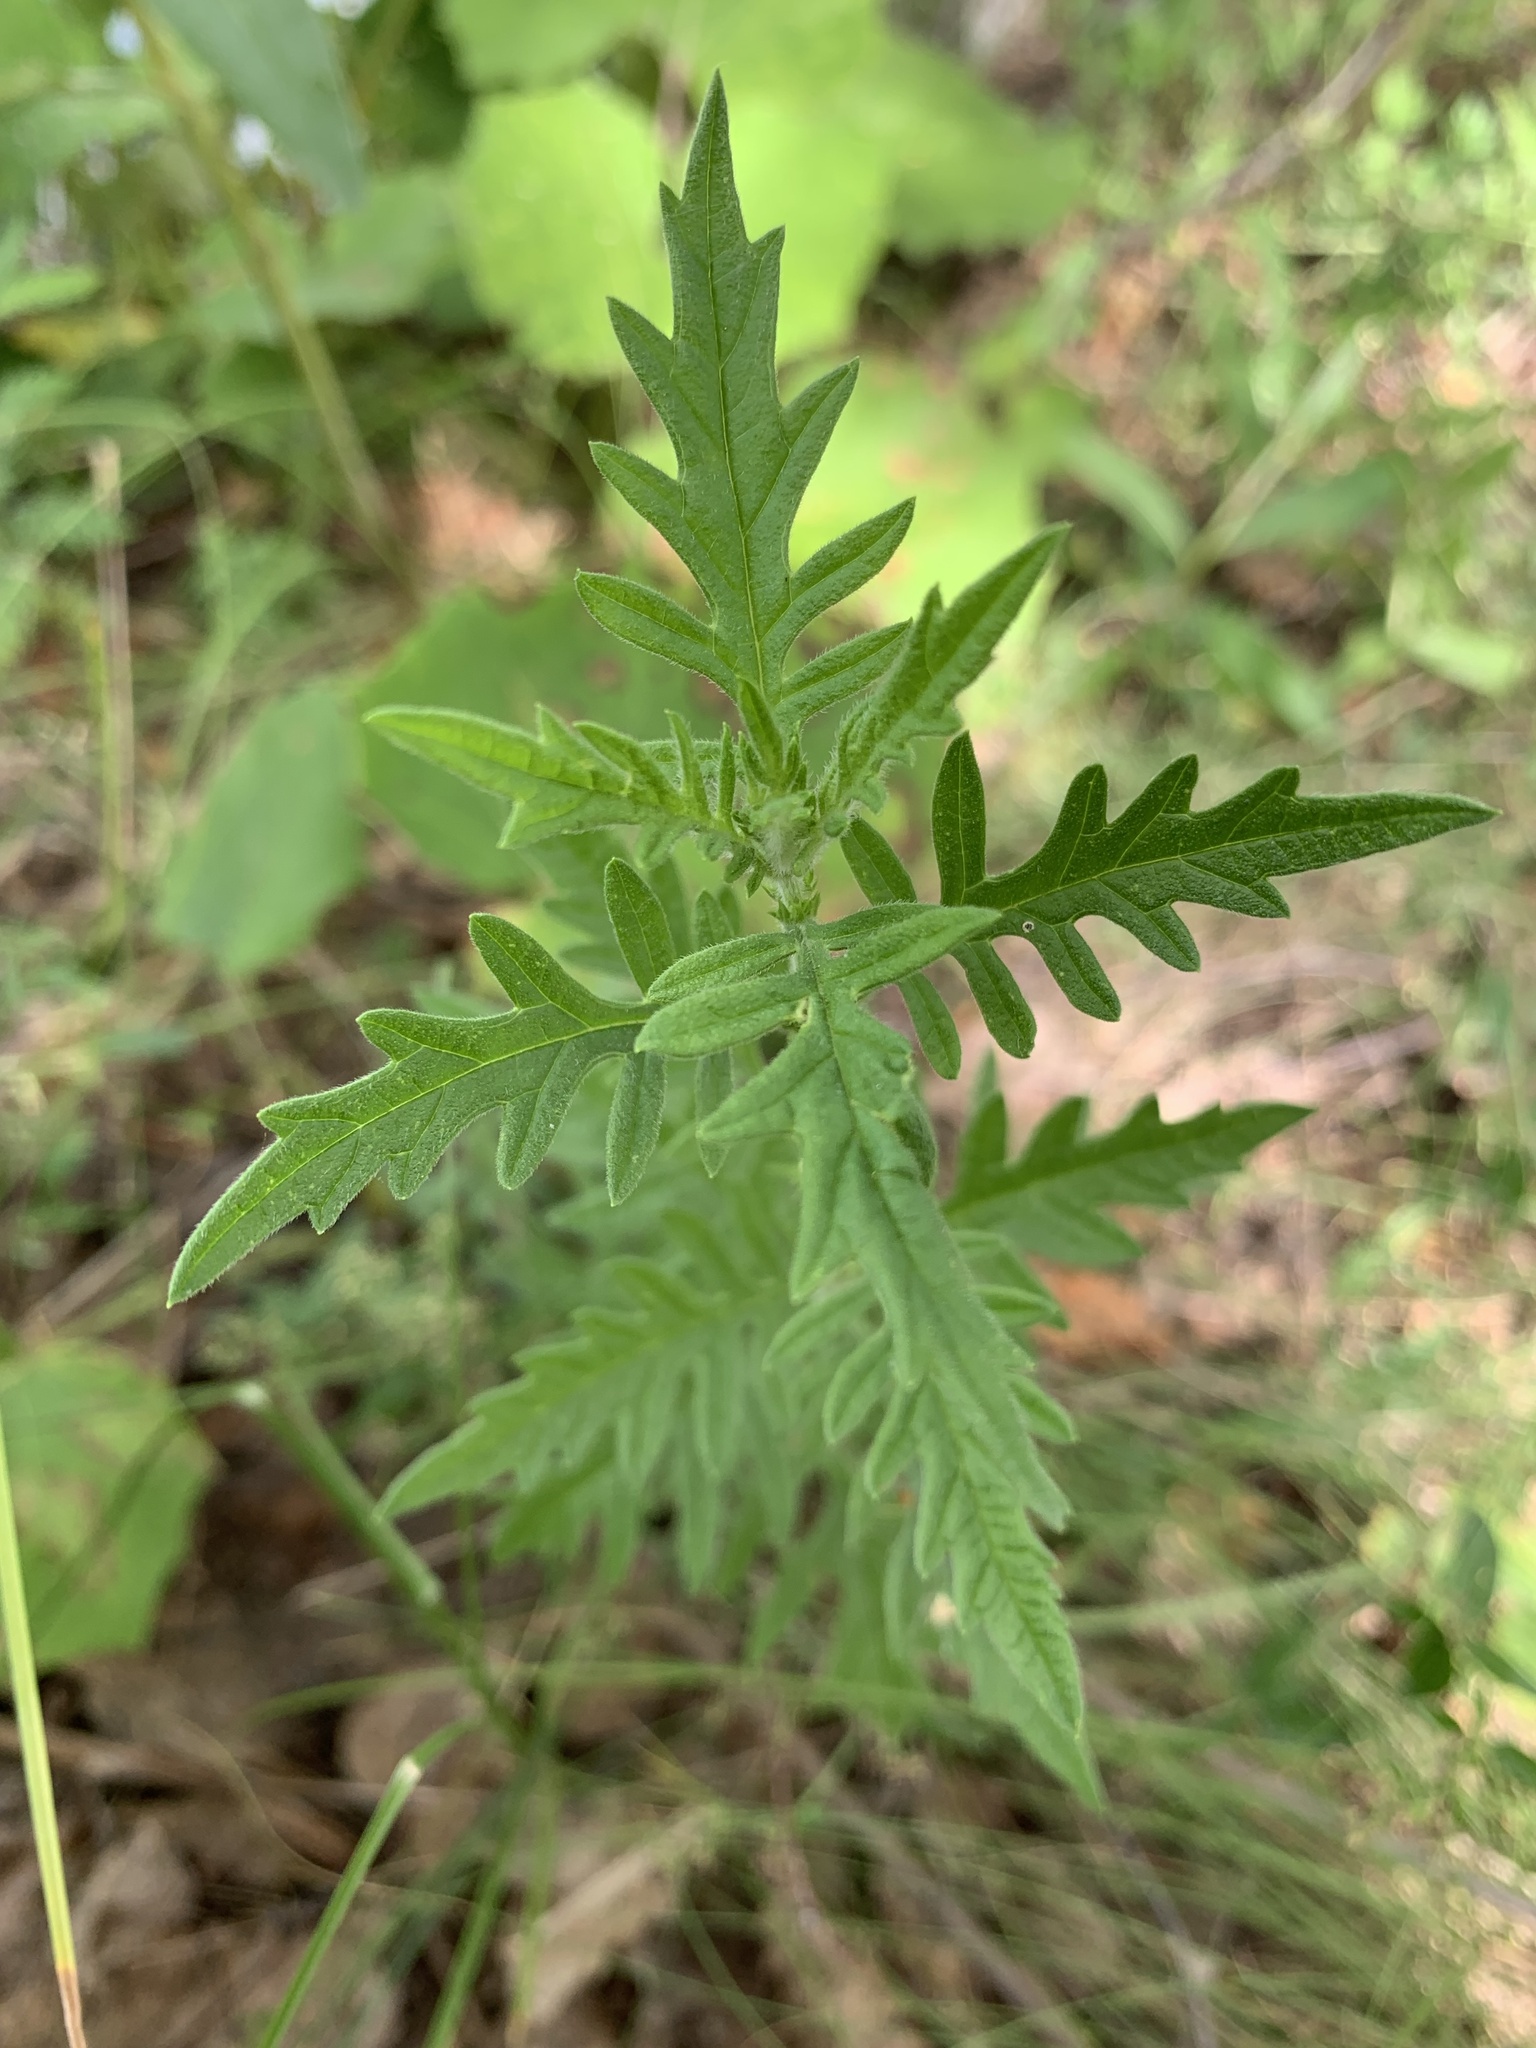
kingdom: Plantae
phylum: Tracheophyta
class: Magnoliopsida
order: Lamiales
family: Lamiaceae
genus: Lycopus
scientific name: Lycopus exaltatus
